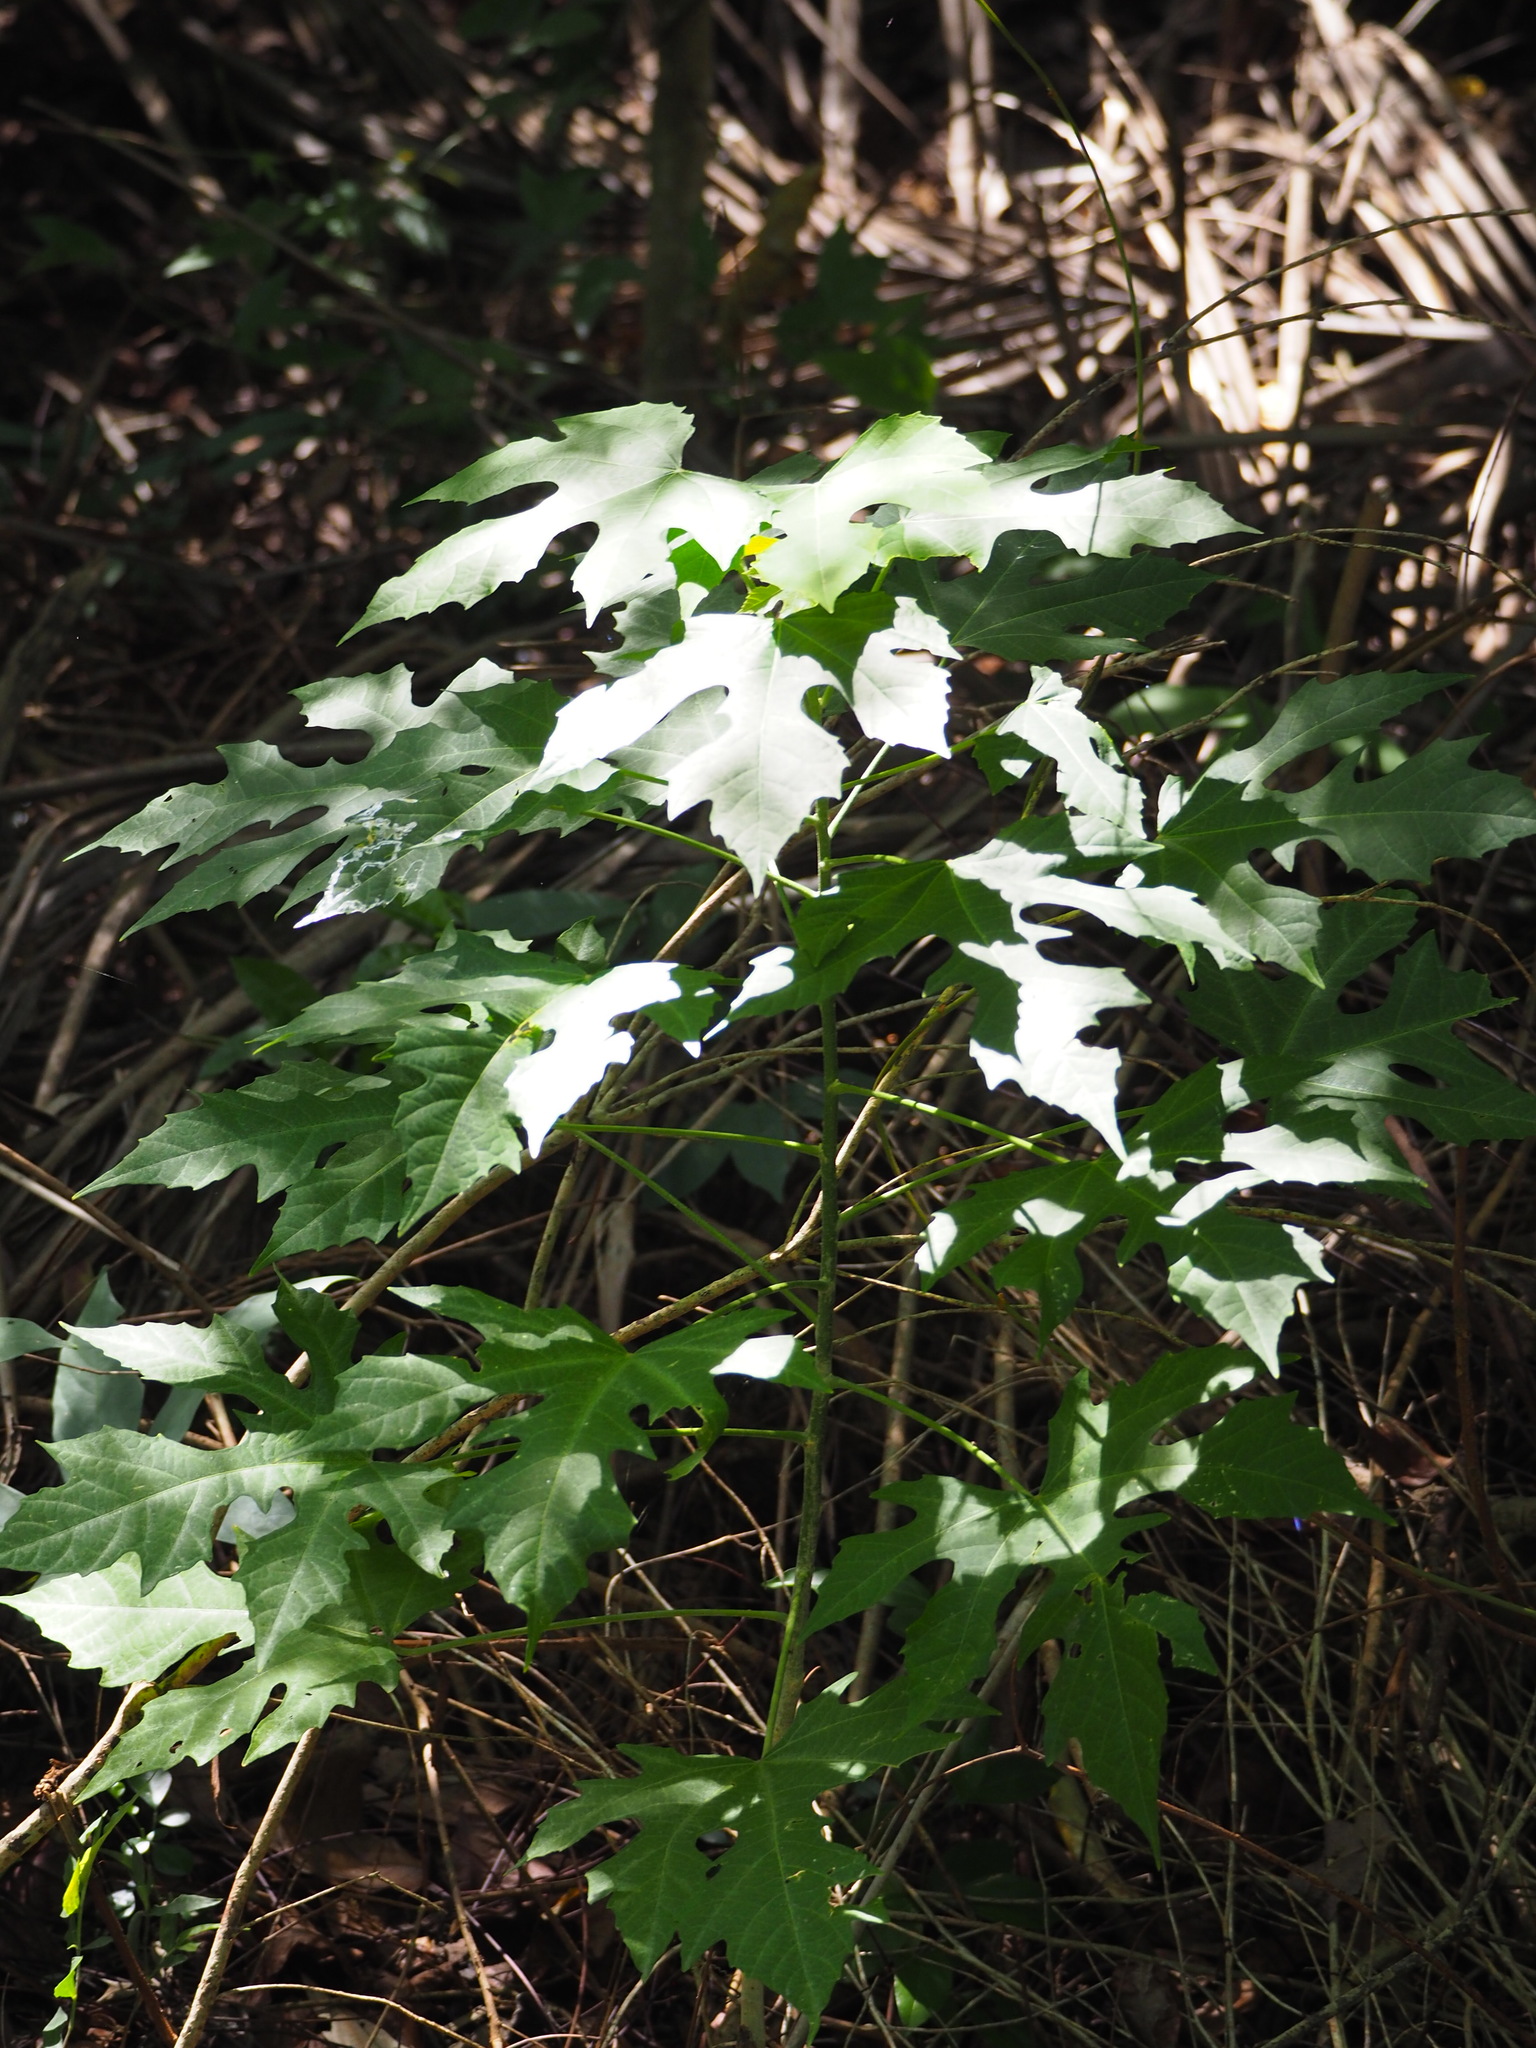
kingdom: Plantae
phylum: Tracheophyta
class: Magnoliopsida
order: Malpighiales
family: Euphorbiaceae
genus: Melanolepis
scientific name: Melanolepis multiglandulosa
